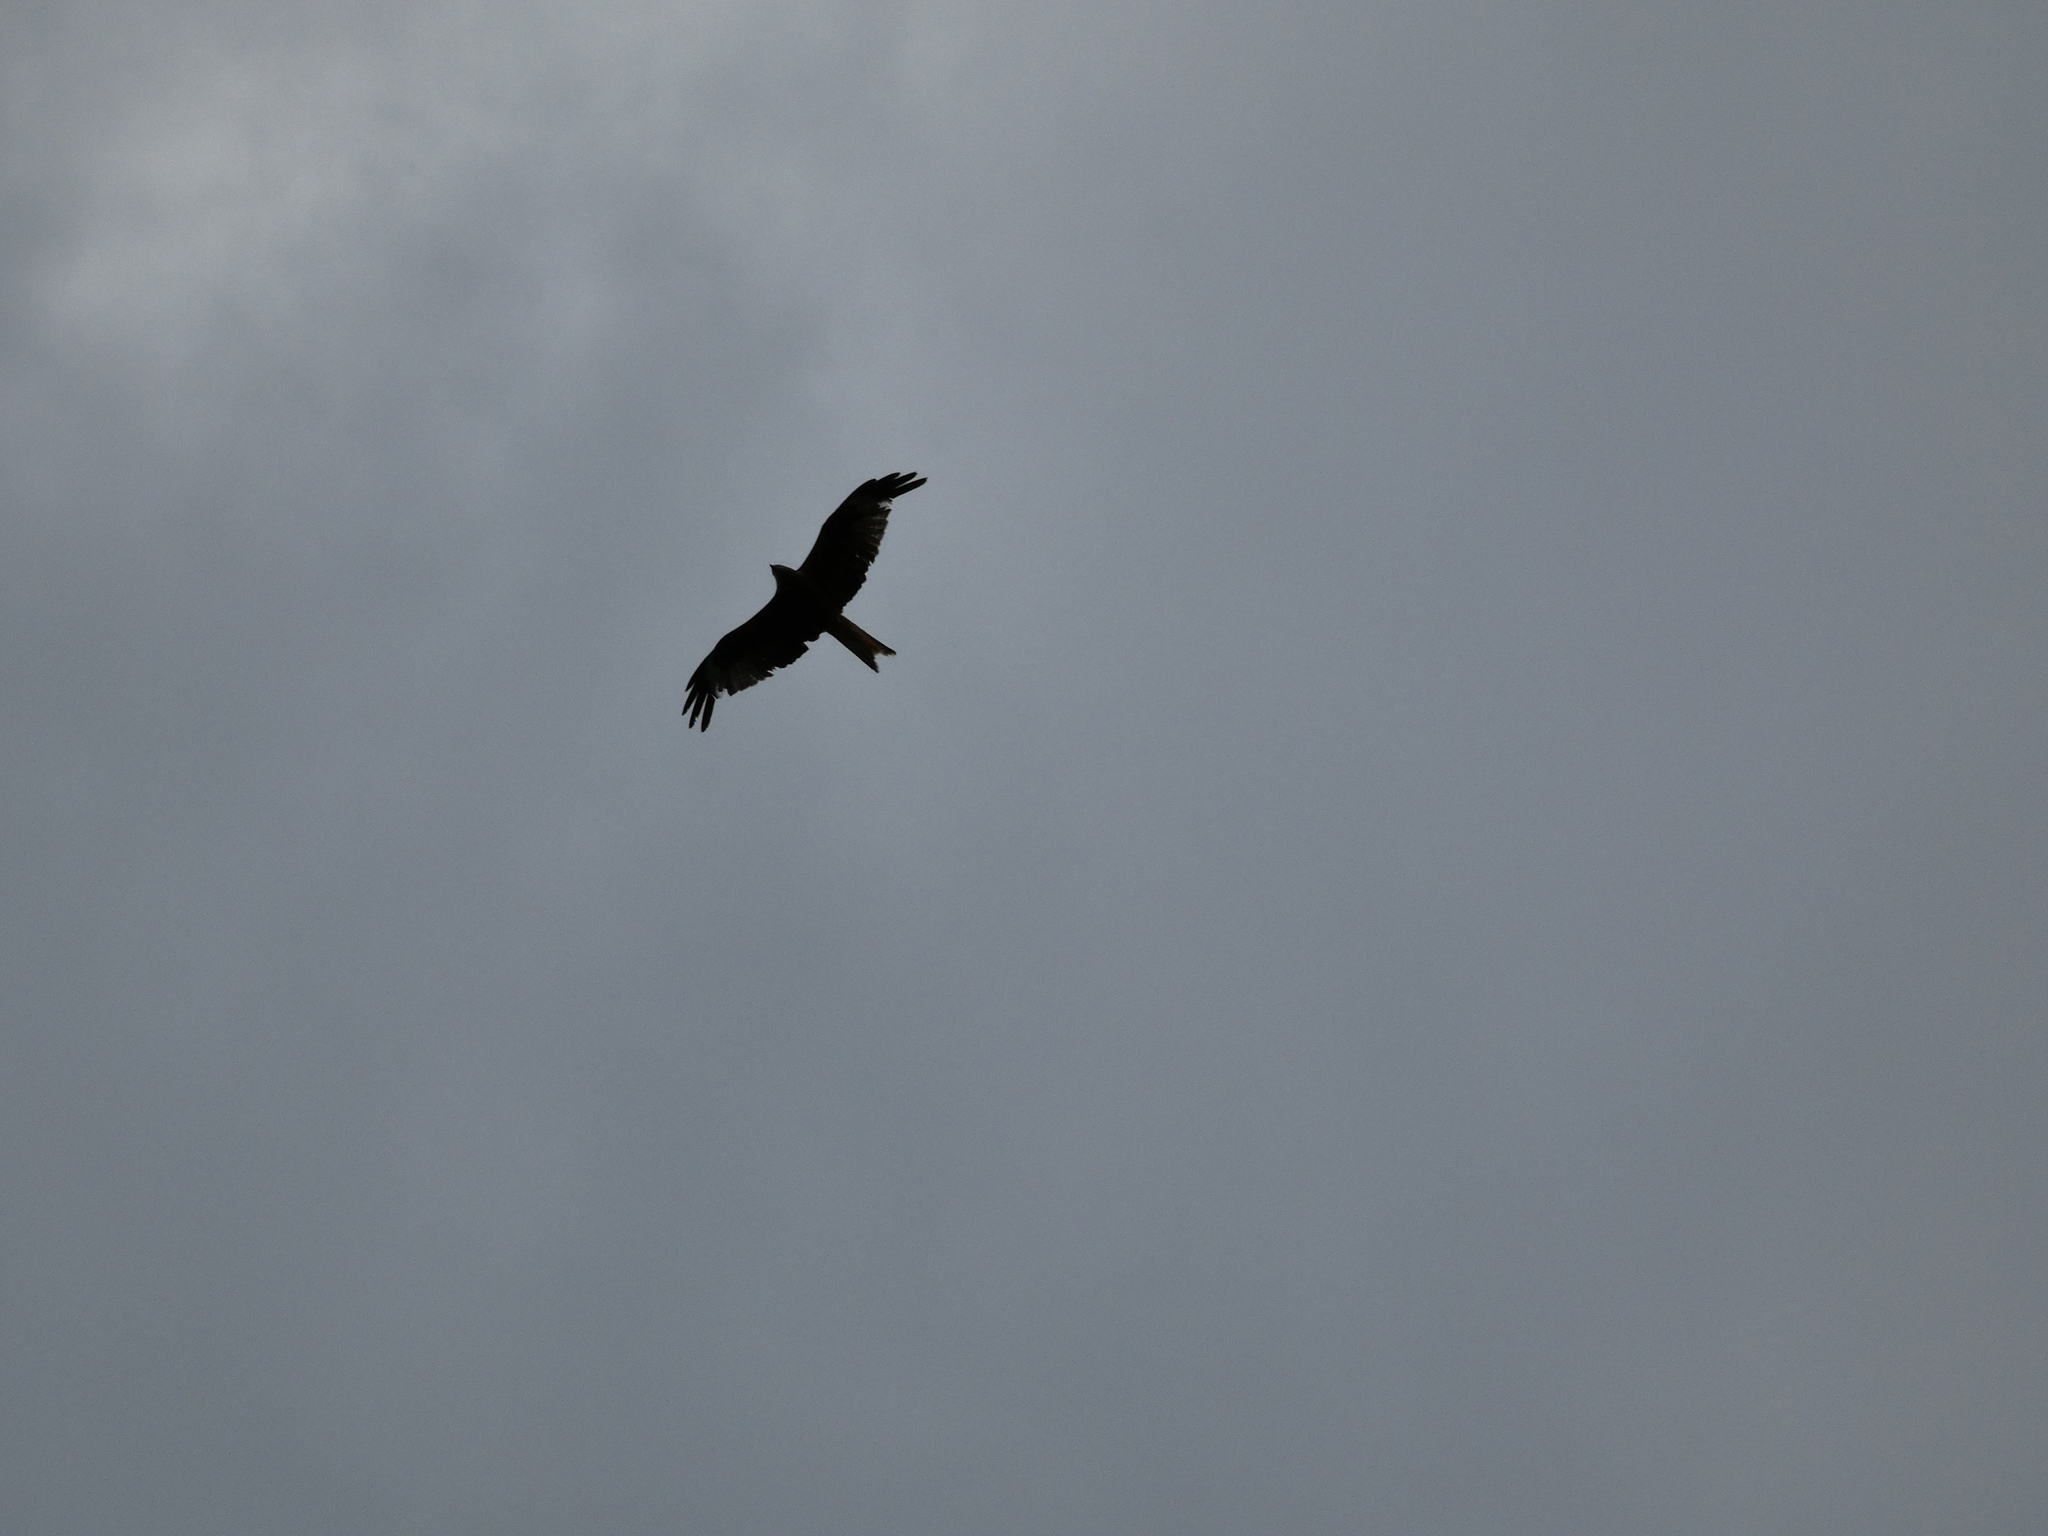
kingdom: Animalia
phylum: Chordata
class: Aves
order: Accipitriformes
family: Accipitridae
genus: Milvus
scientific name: Milvus milvus
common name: Red kite
